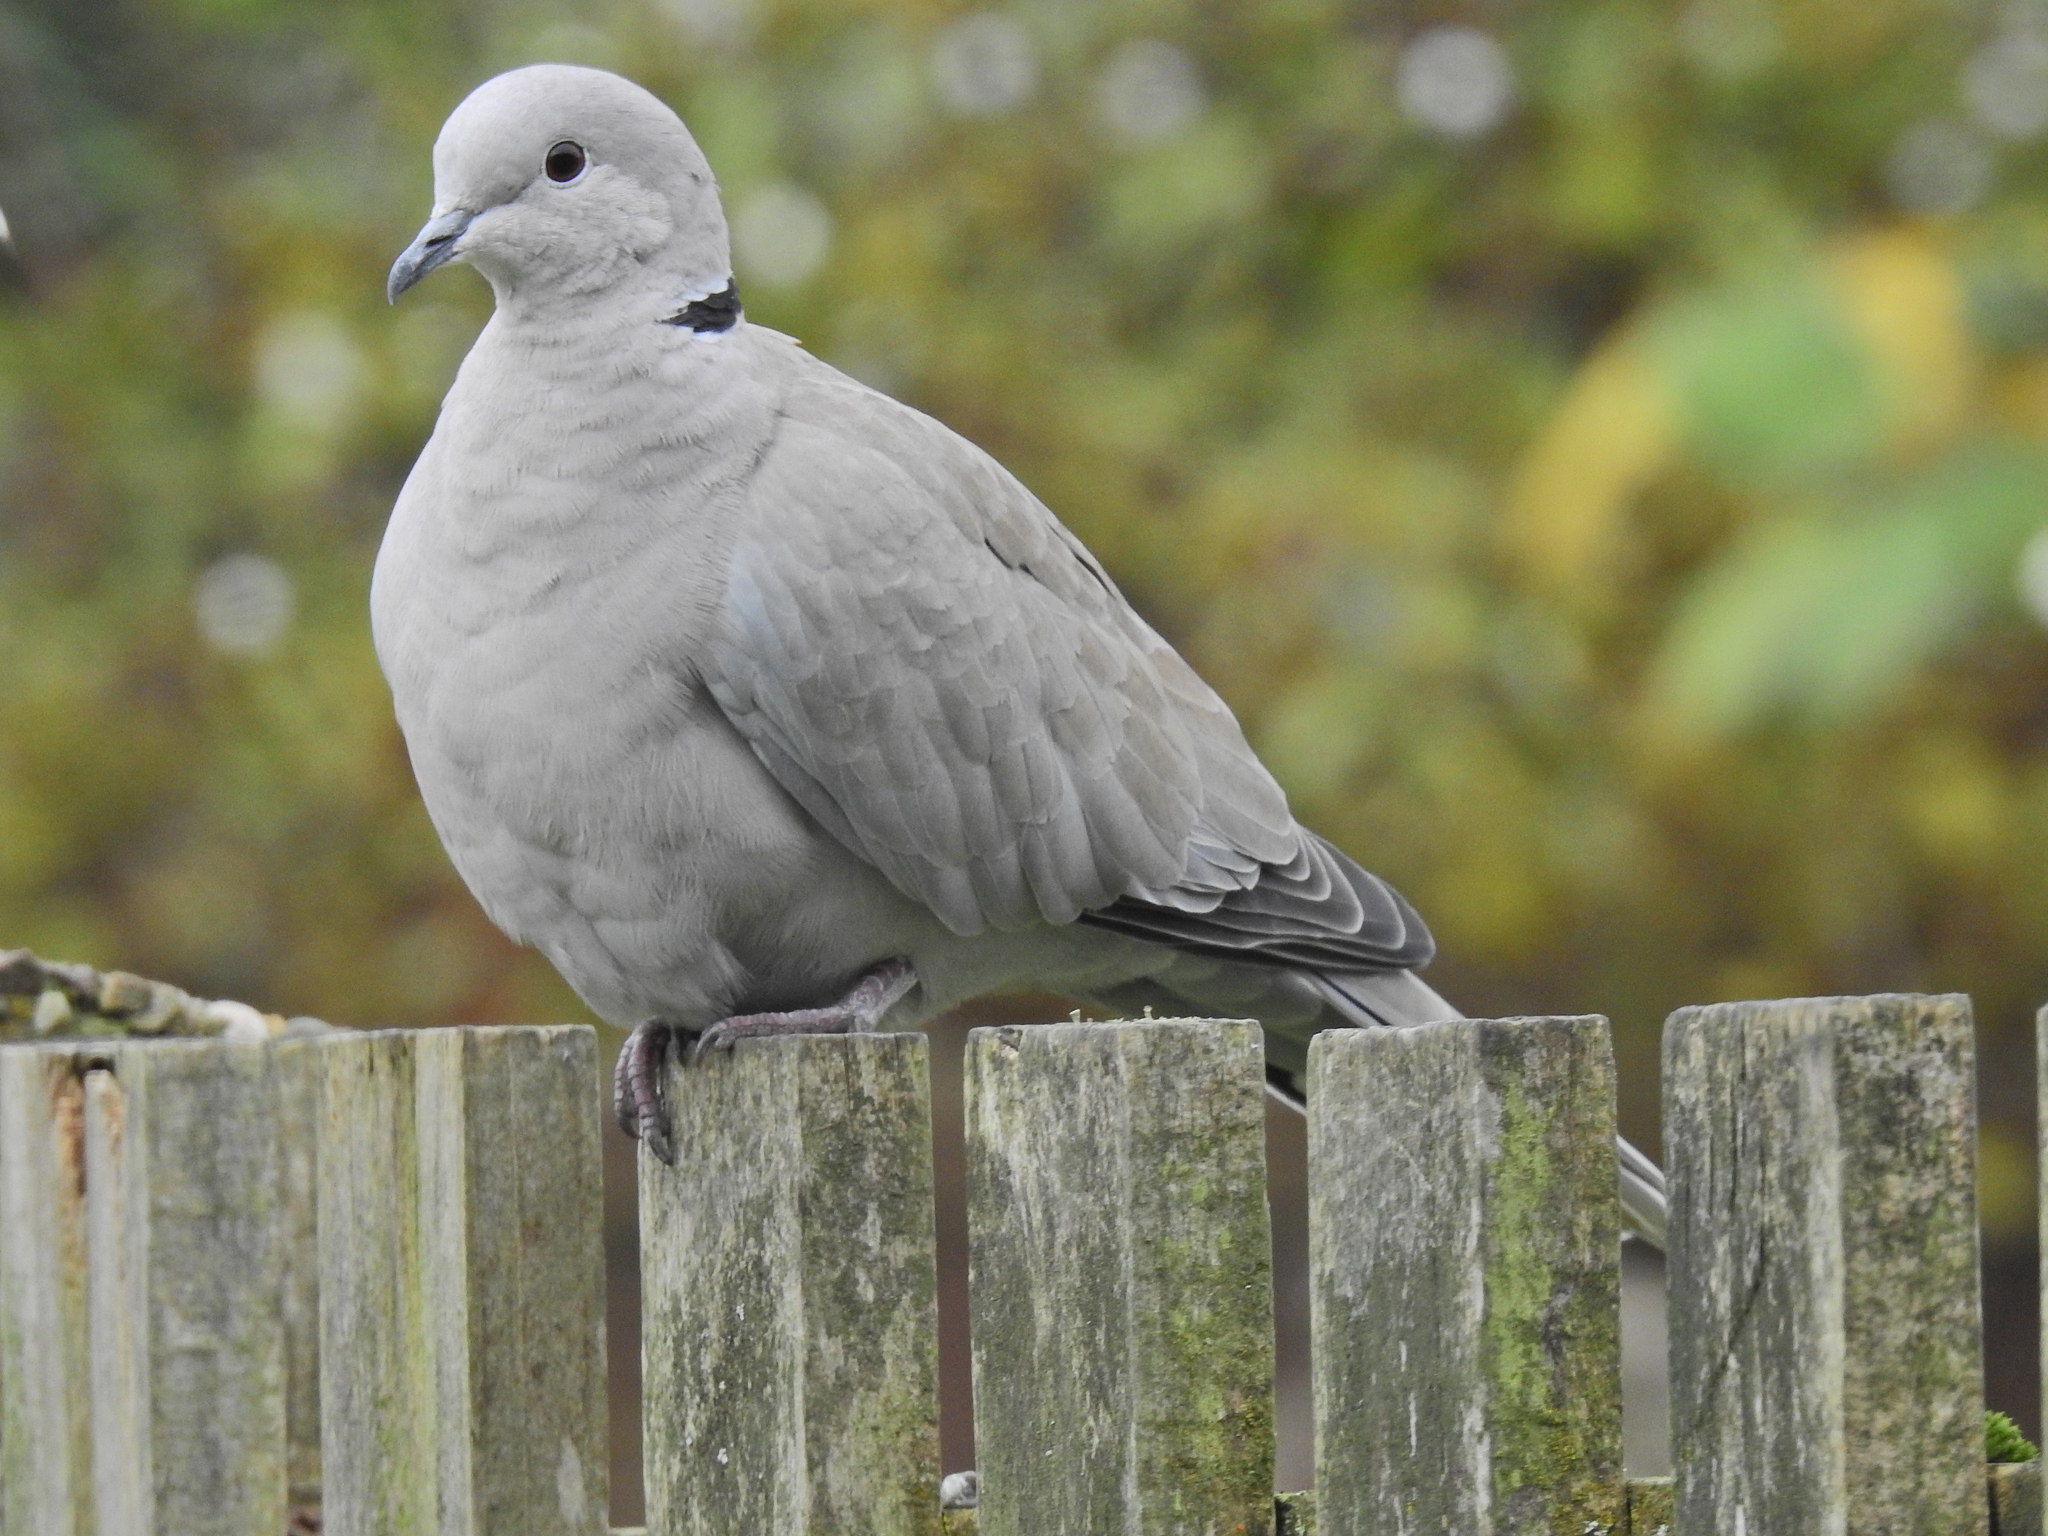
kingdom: Animalia
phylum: Chordata
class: Aves
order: Columbiformes
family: Columbidae
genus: Streptopelia
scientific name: Streptopelia decaocto
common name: Eurasian collared dove
